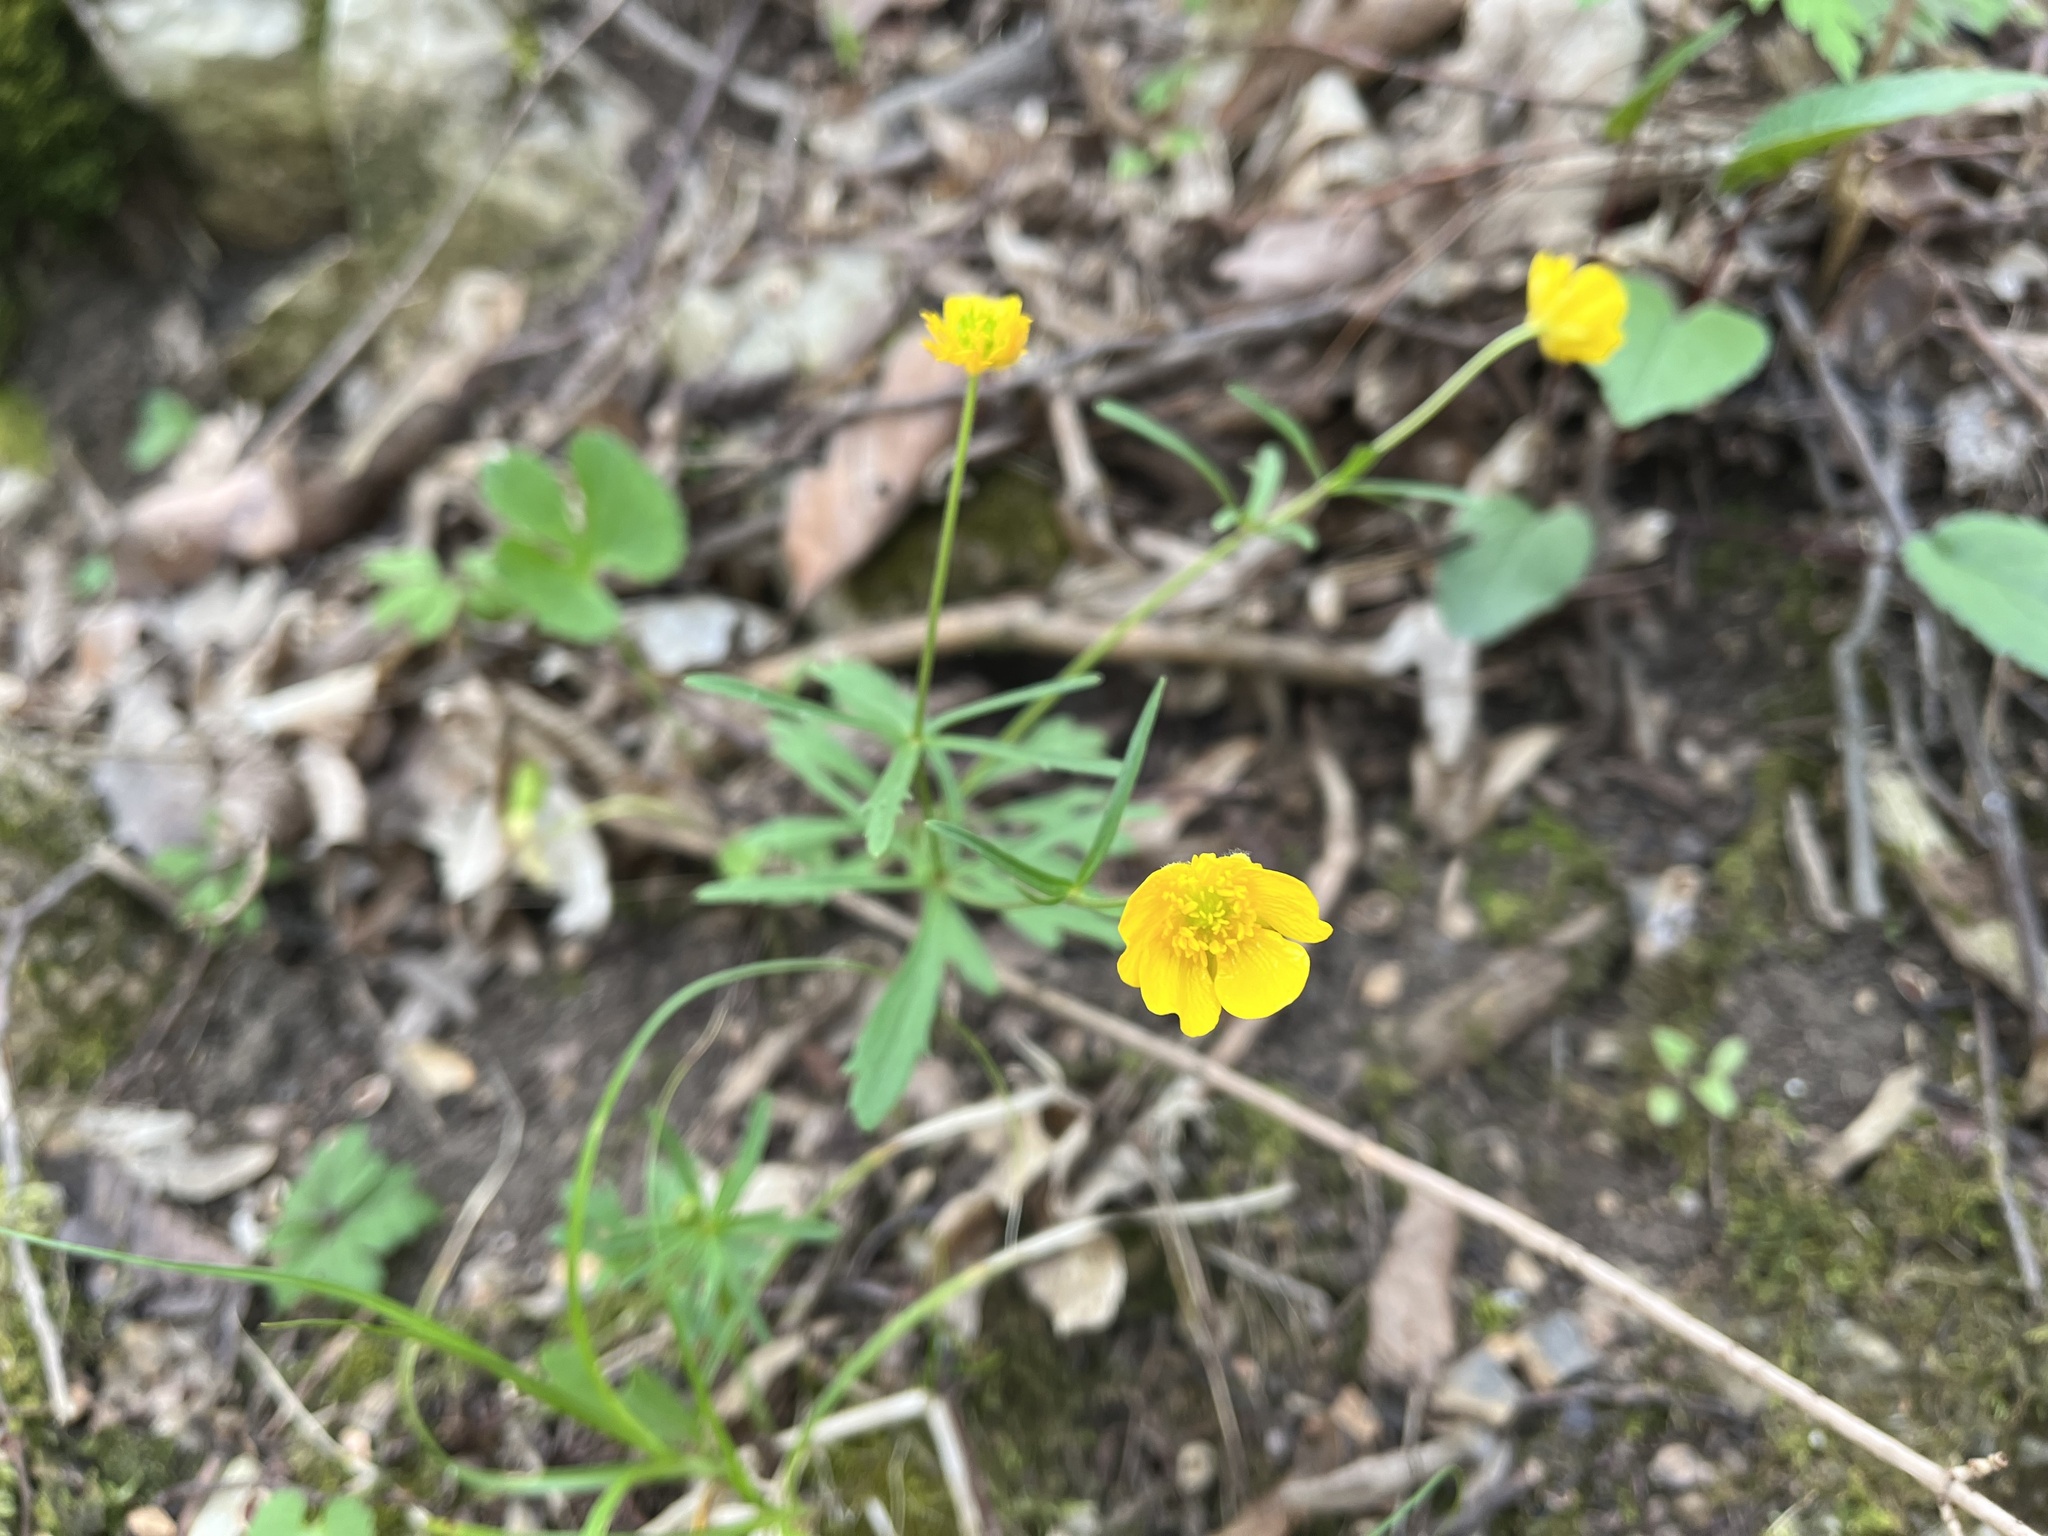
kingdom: Plantae
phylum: Tracheophyta
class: Magnoliopsida
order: Ranunculales
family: Ranunculaceae
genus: Ranunculus
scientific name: Ranunculus auricomus
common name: Goldilocks buttercup
